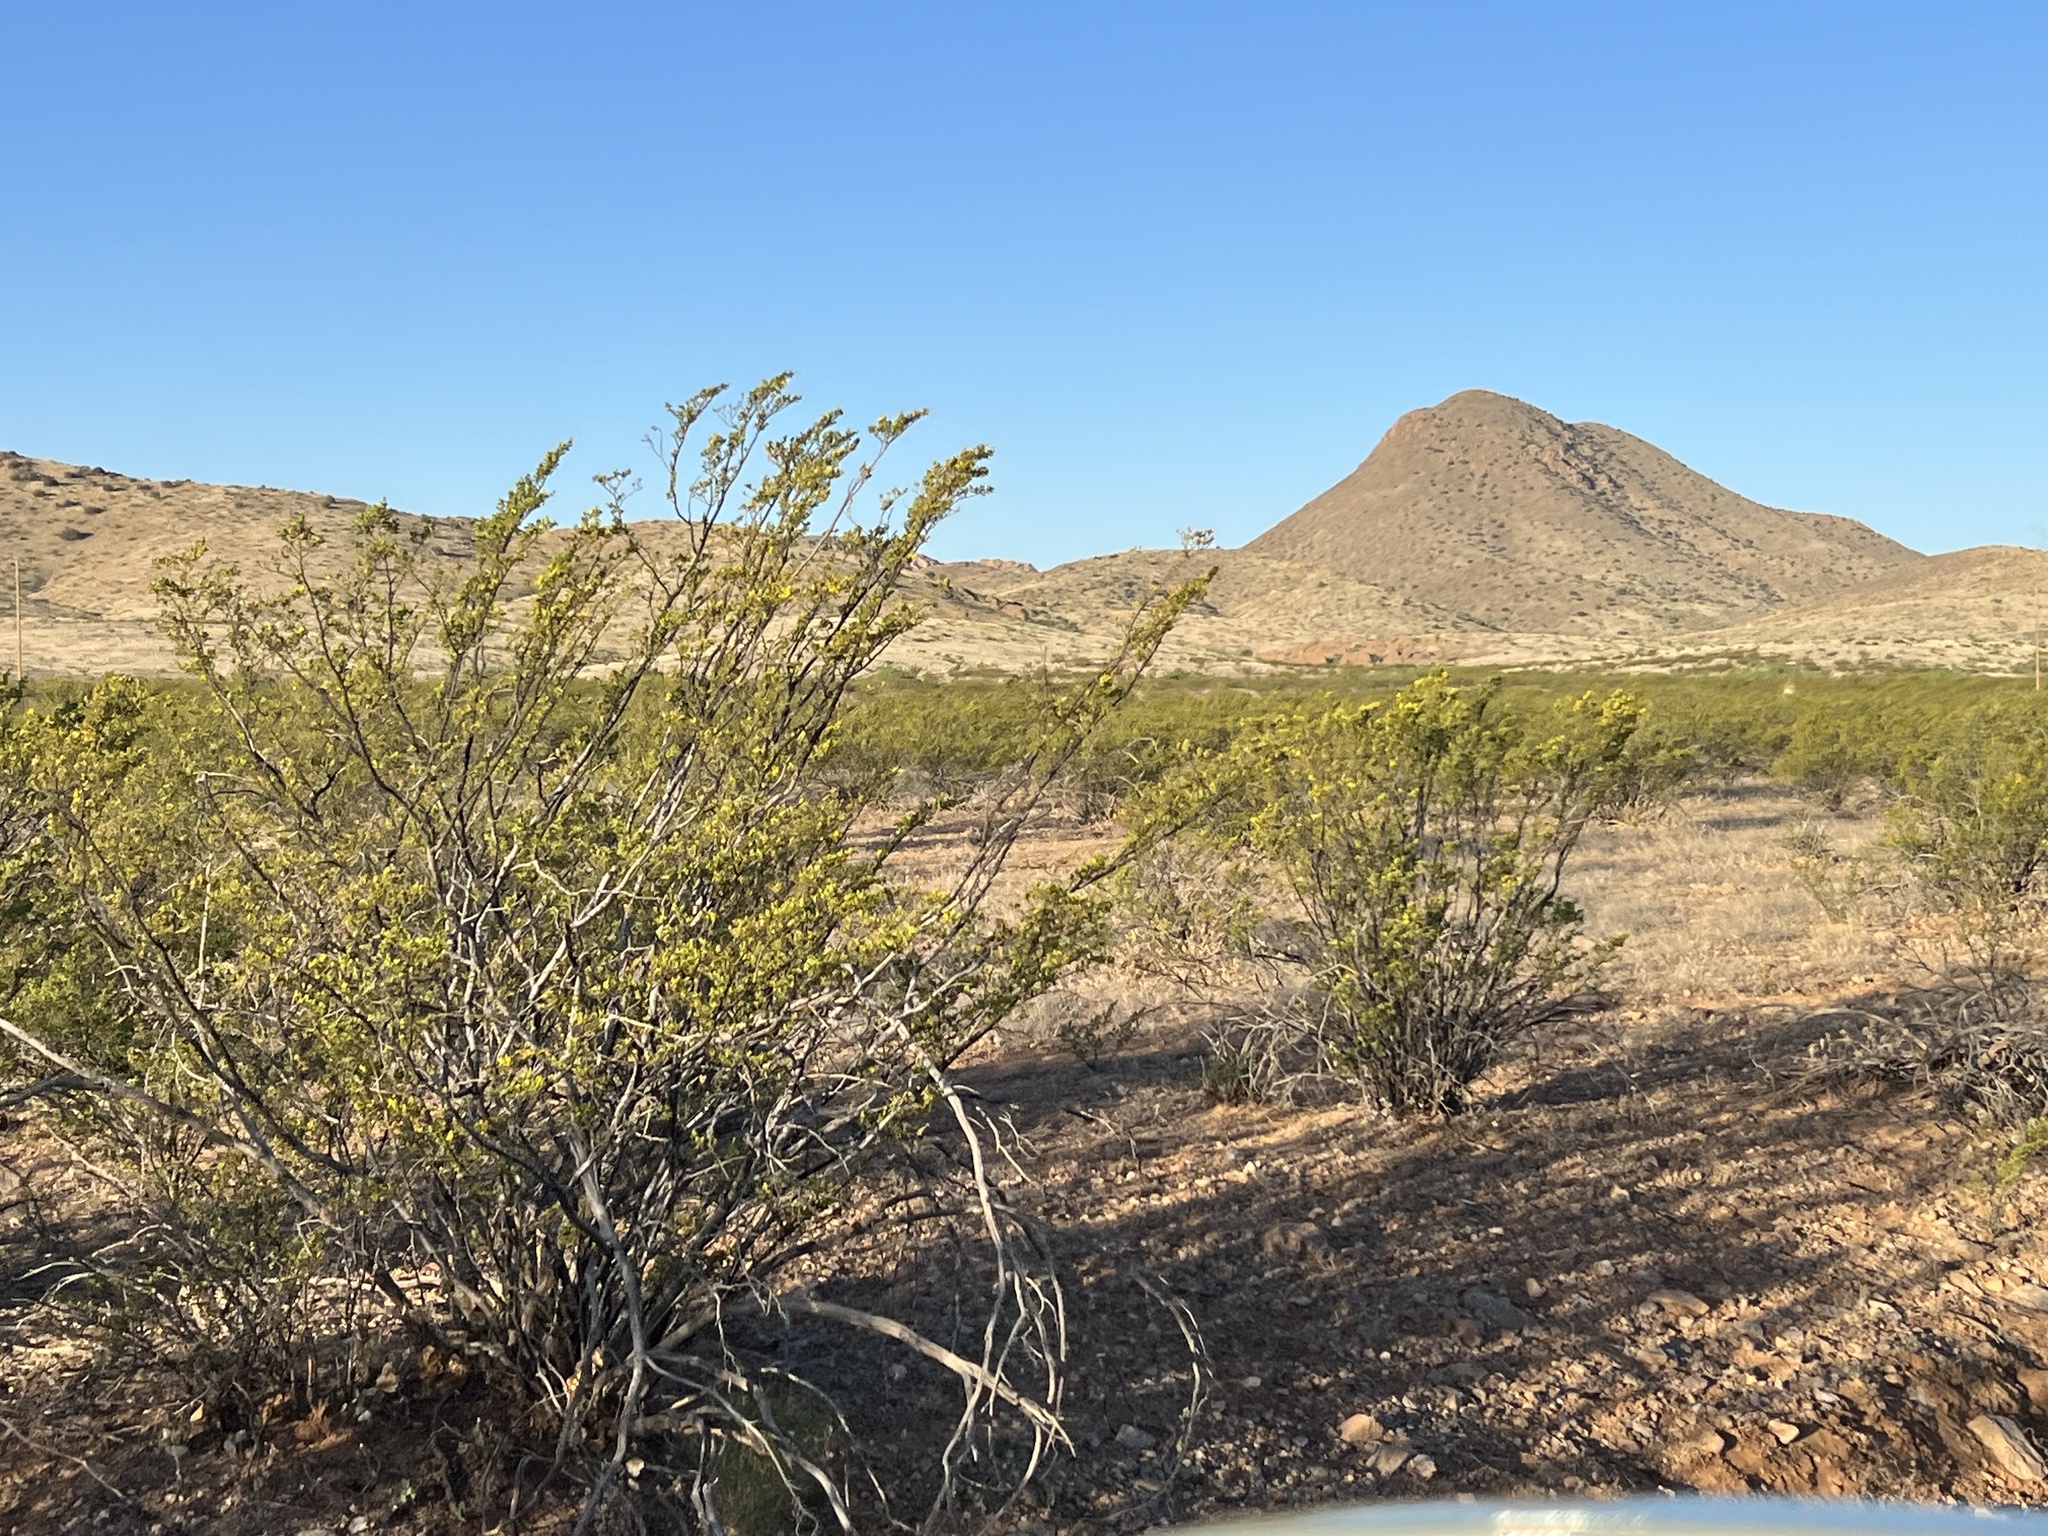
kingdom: Plantae
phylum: Tracheophyta
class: Magnoliopsida
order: Zygophyllales
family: Zygophyllaceae
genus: Larrea
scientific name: Larrea tridentata
